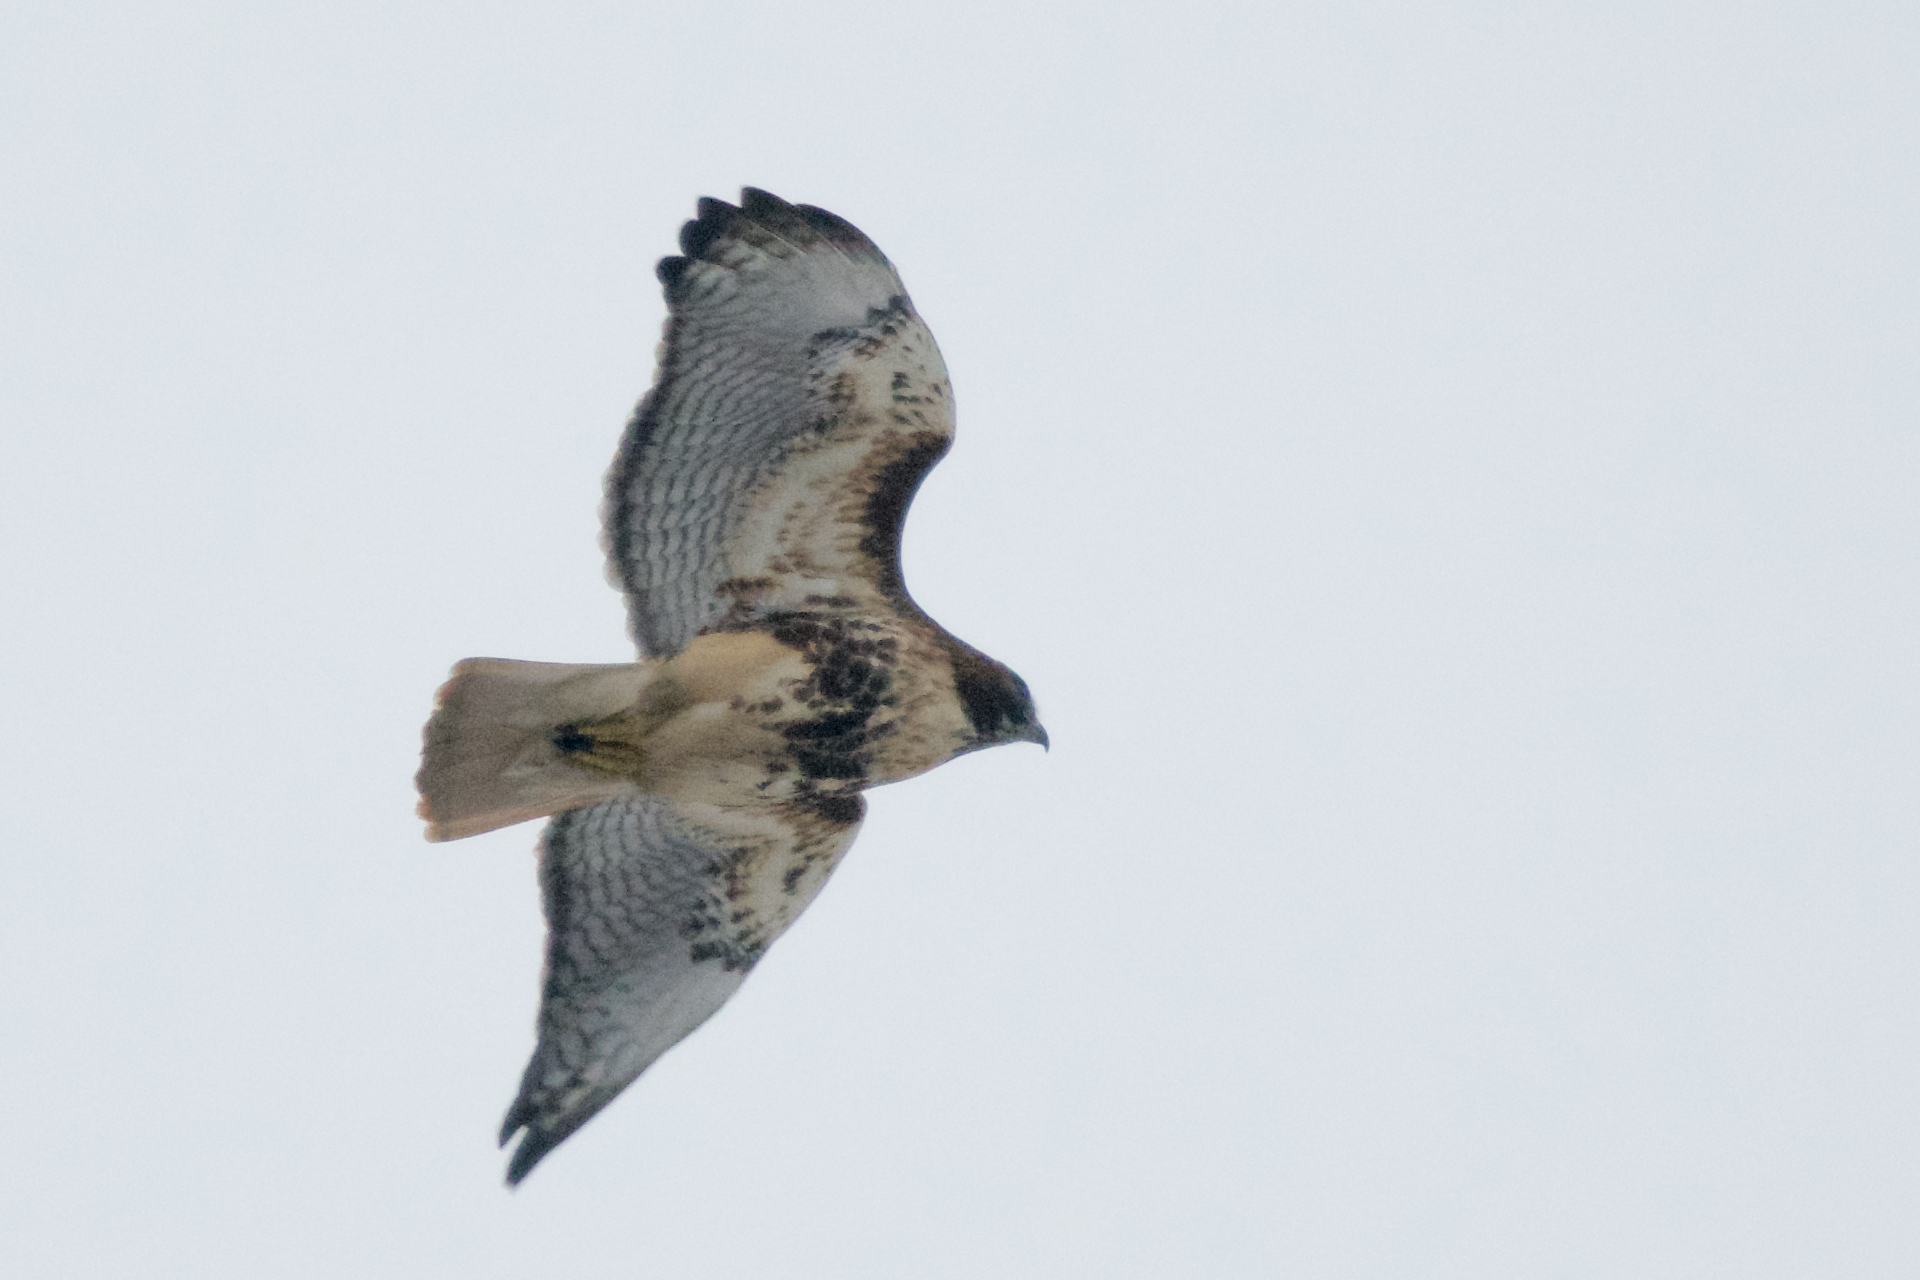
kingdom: Animalia
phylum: Chordata
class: Aves
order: Accipitriformes
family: Accipitridae
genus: Buteo
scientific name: Buteo jamaicensis
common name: Red-tailed hawk
